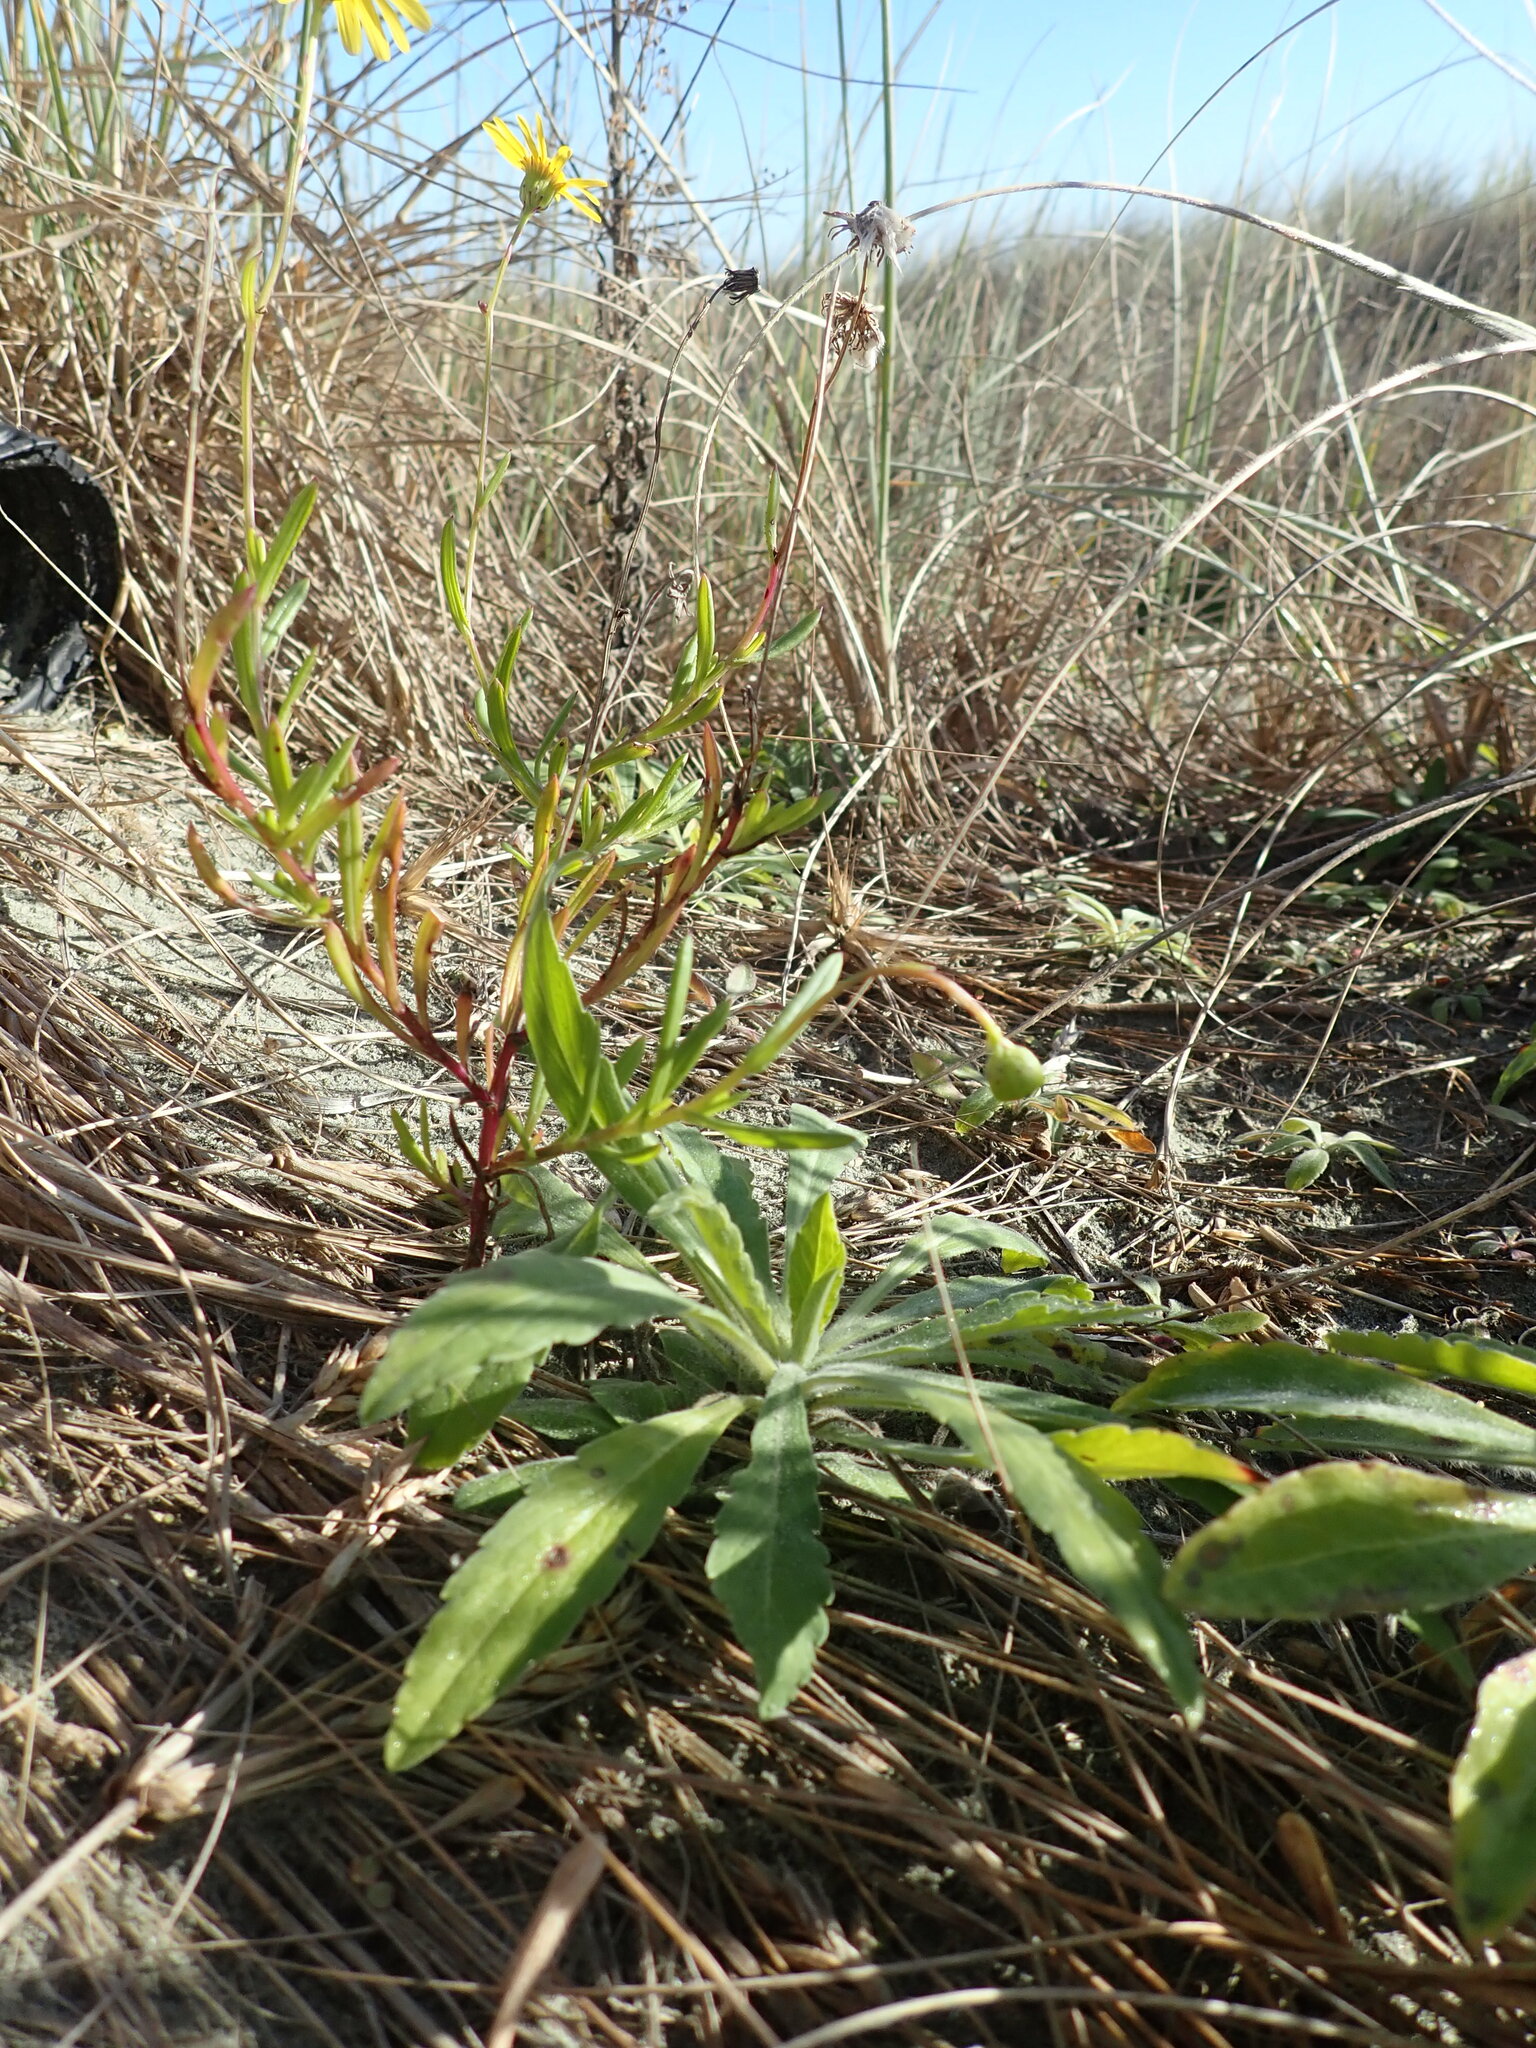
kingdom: Plantae
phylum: Tracheophyta
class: Magnoliopsida
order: Asterales
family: Asteraceae
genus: Senecio
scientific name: Senecio skirrhodon
